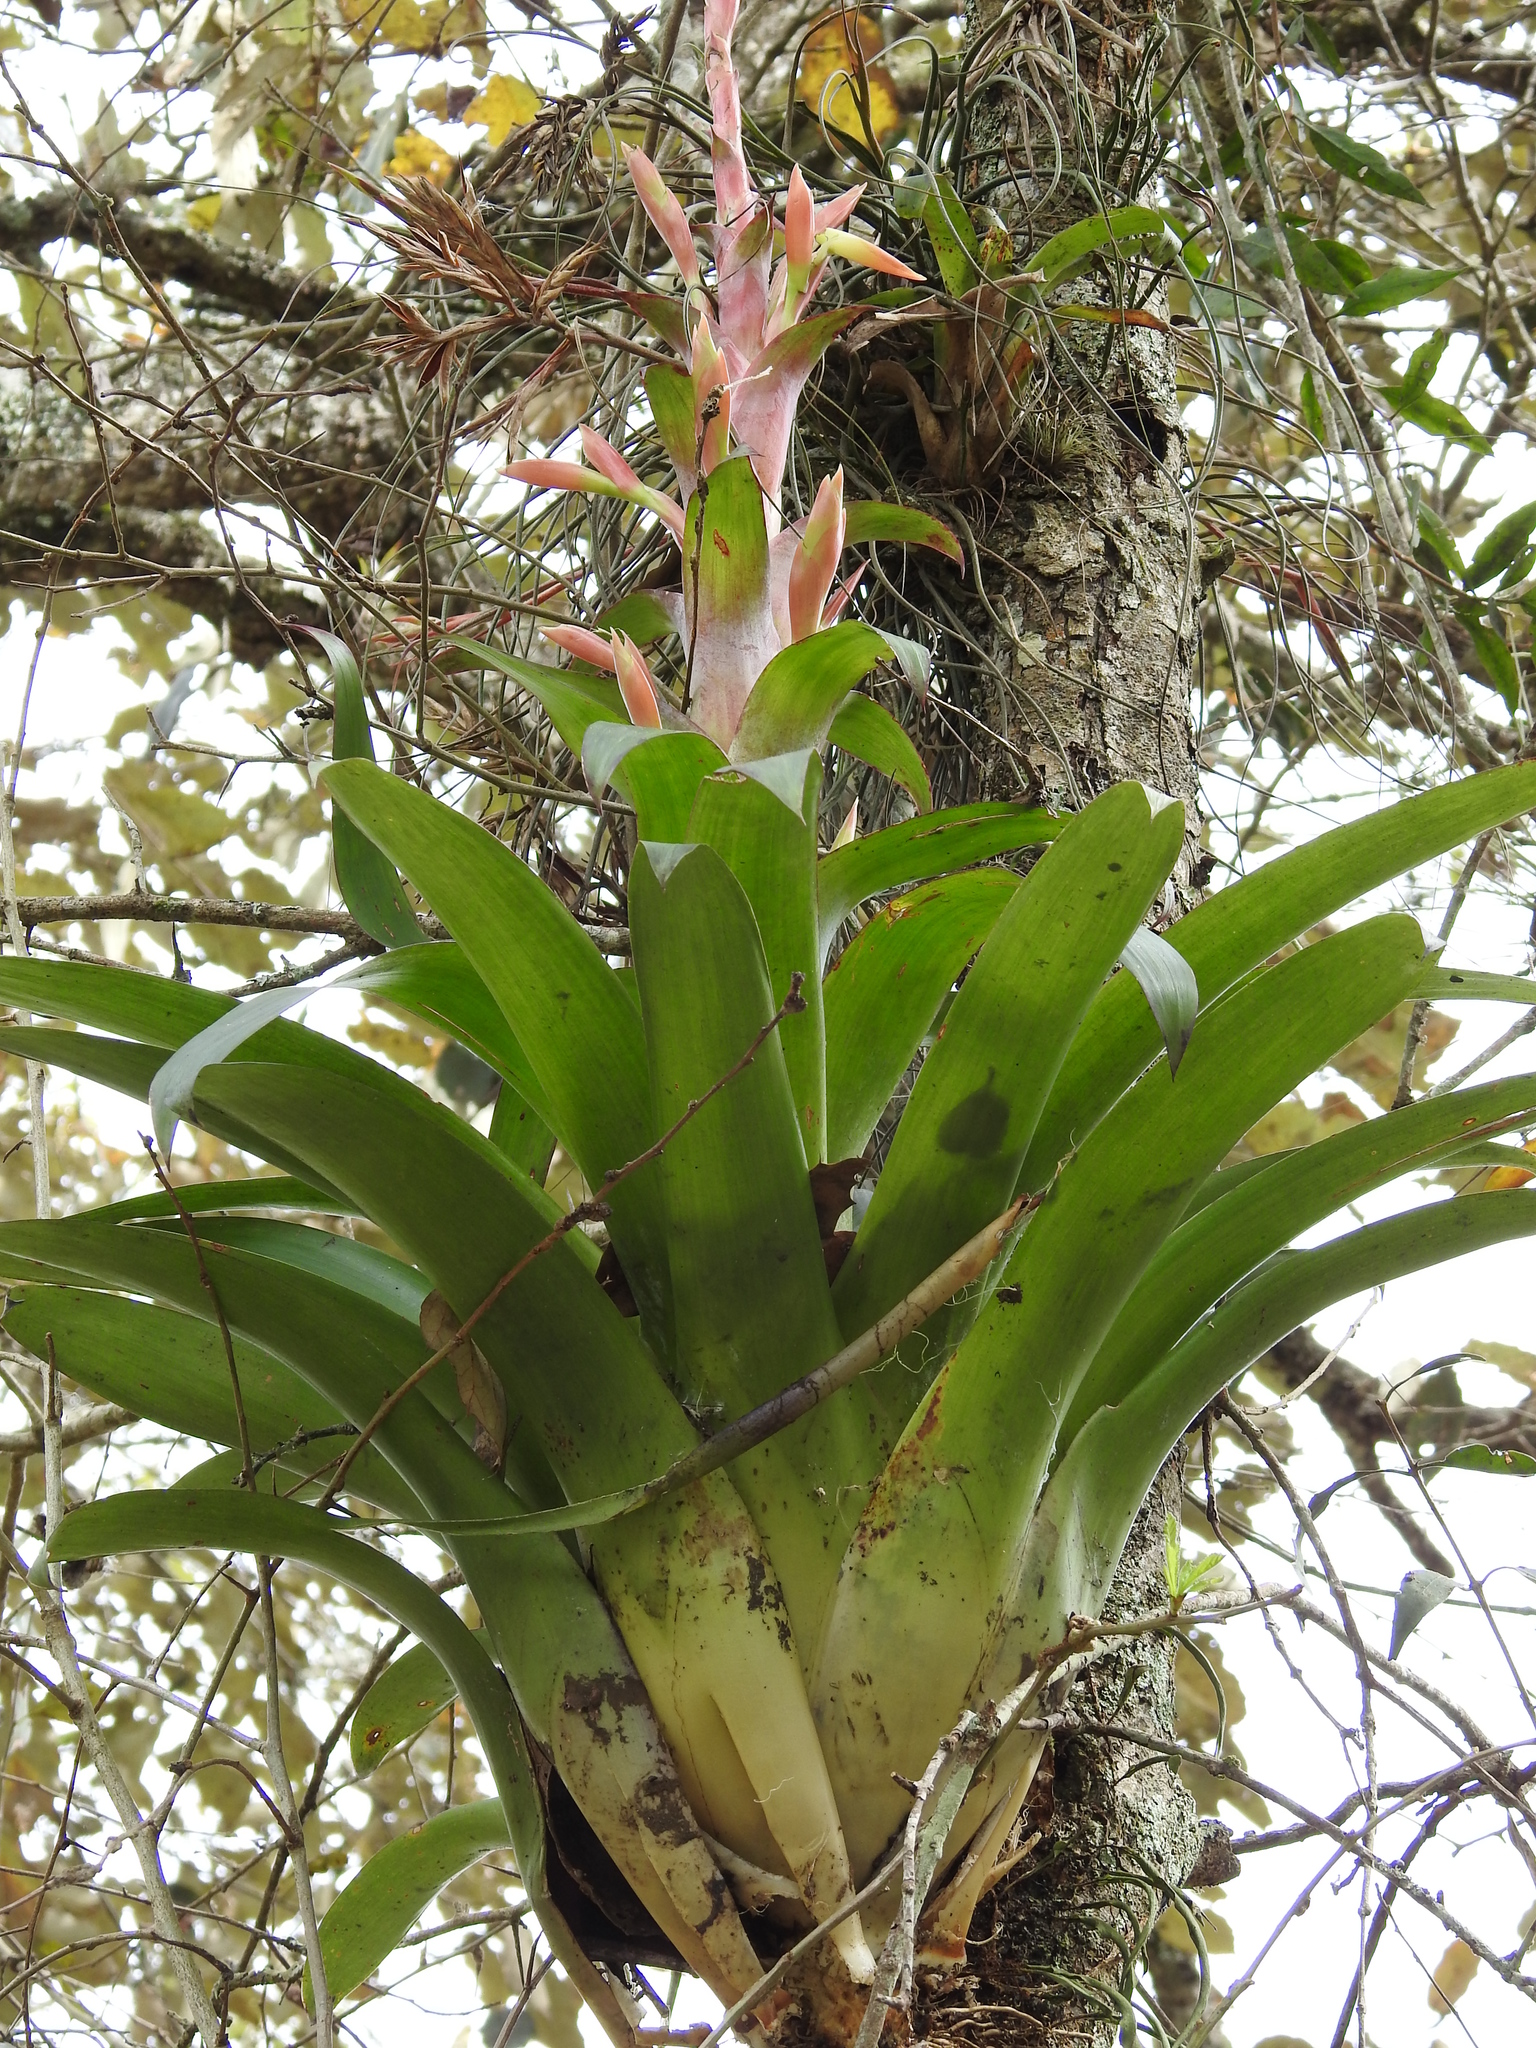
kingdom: Plantae
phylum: Tracheophyta
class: Liliopsida
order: Poales
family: Bromeliaceae
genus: Tillandsia
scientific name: Tillandsia deppeana
